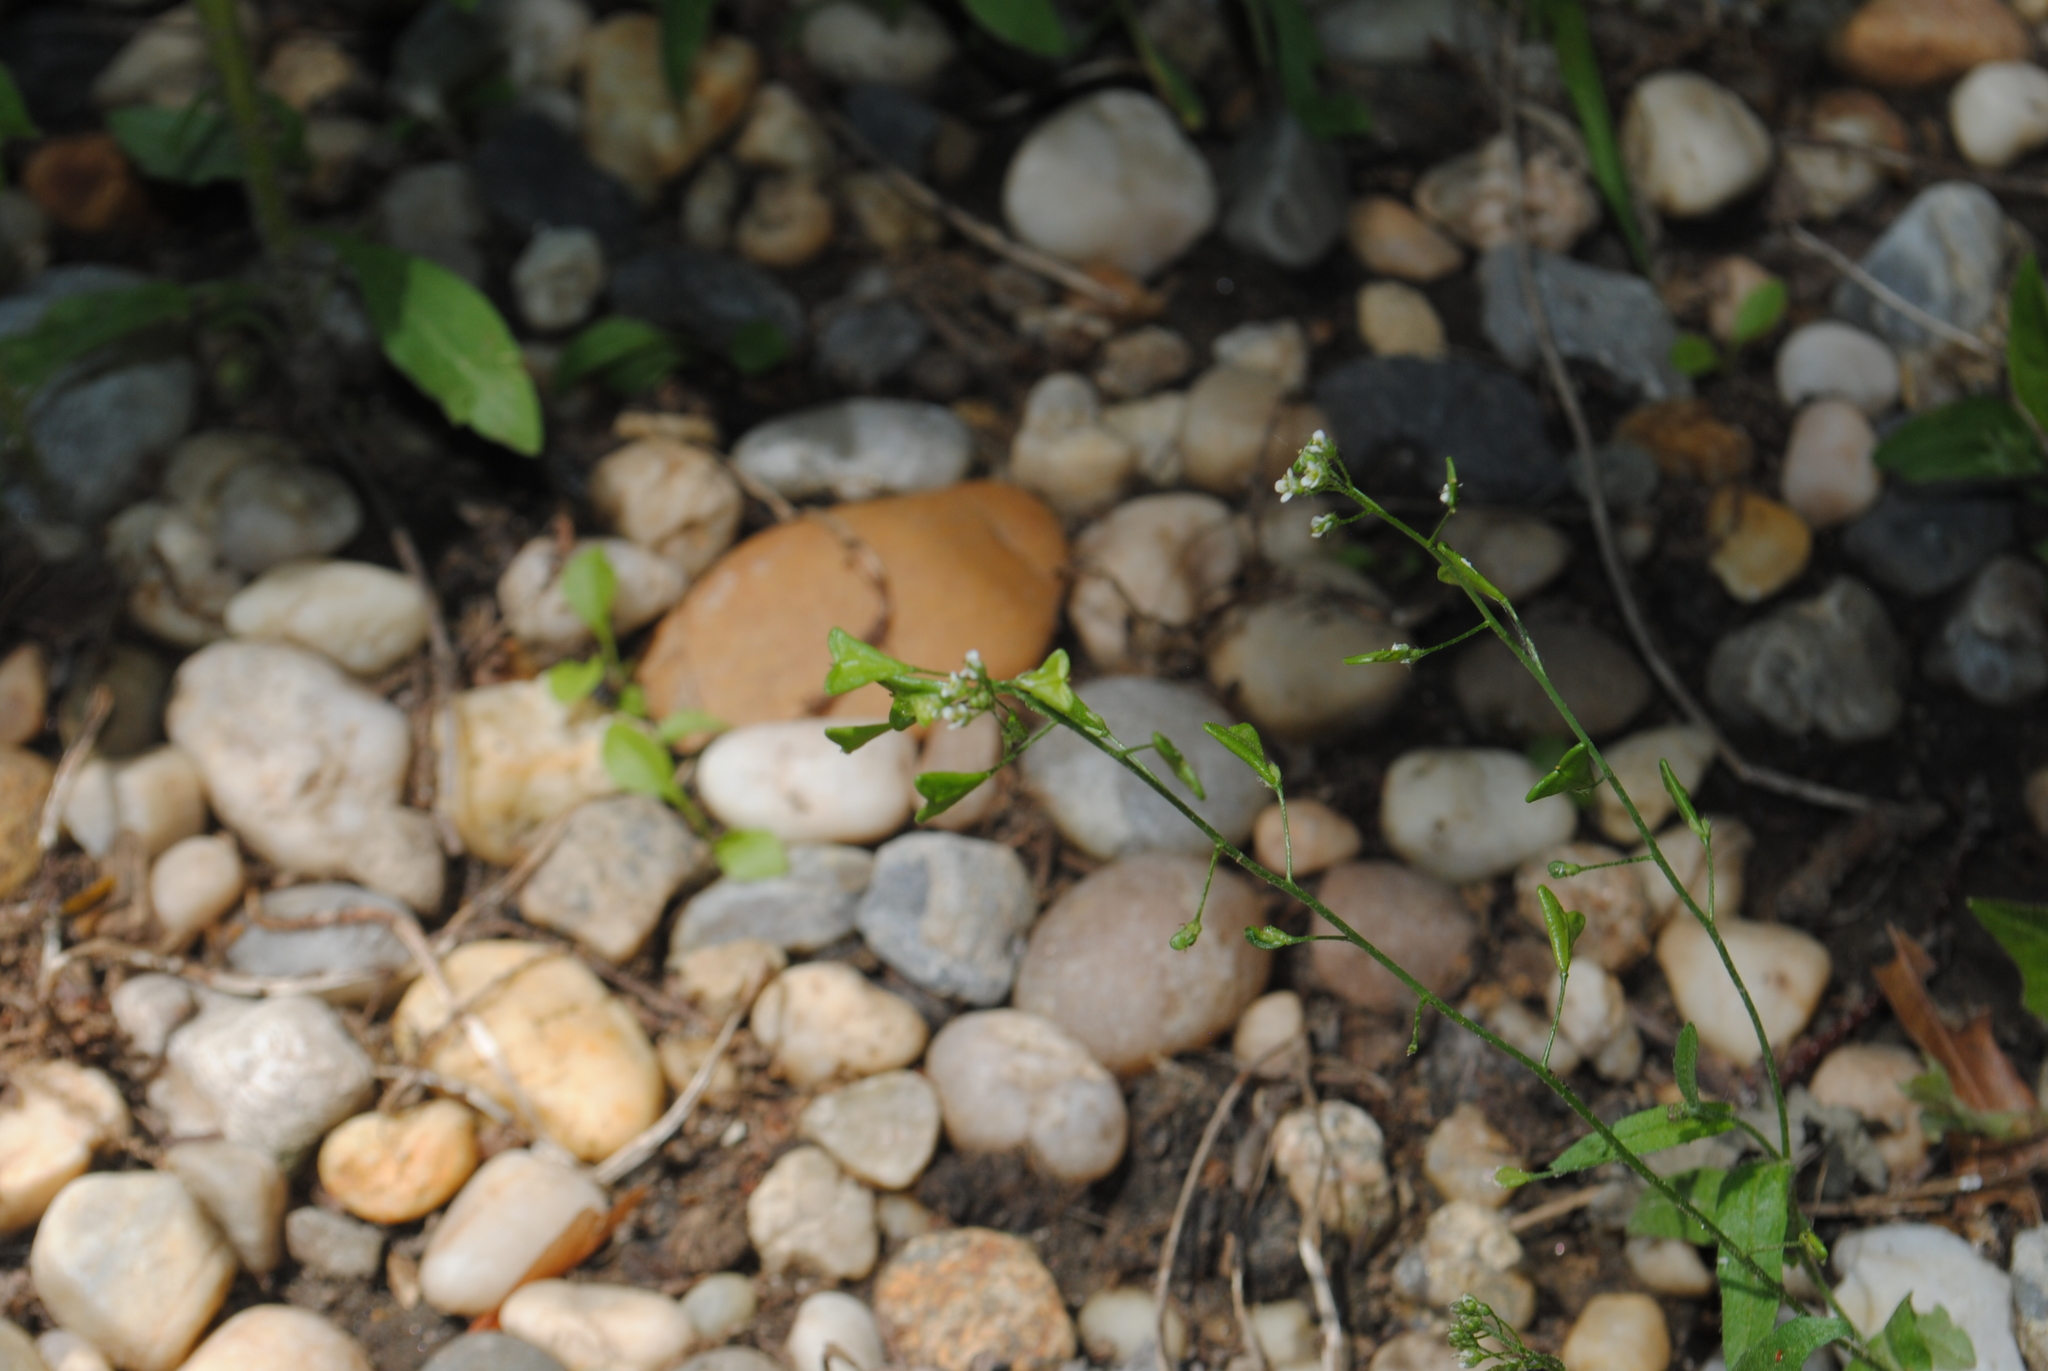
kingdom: Plantae
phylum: Tracheophyta
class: Magnoliopsida
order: Brassicales
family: Brassicaceae
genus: Capsella
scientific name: Capsella bursa-pastoris
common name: Shepherd's purse
